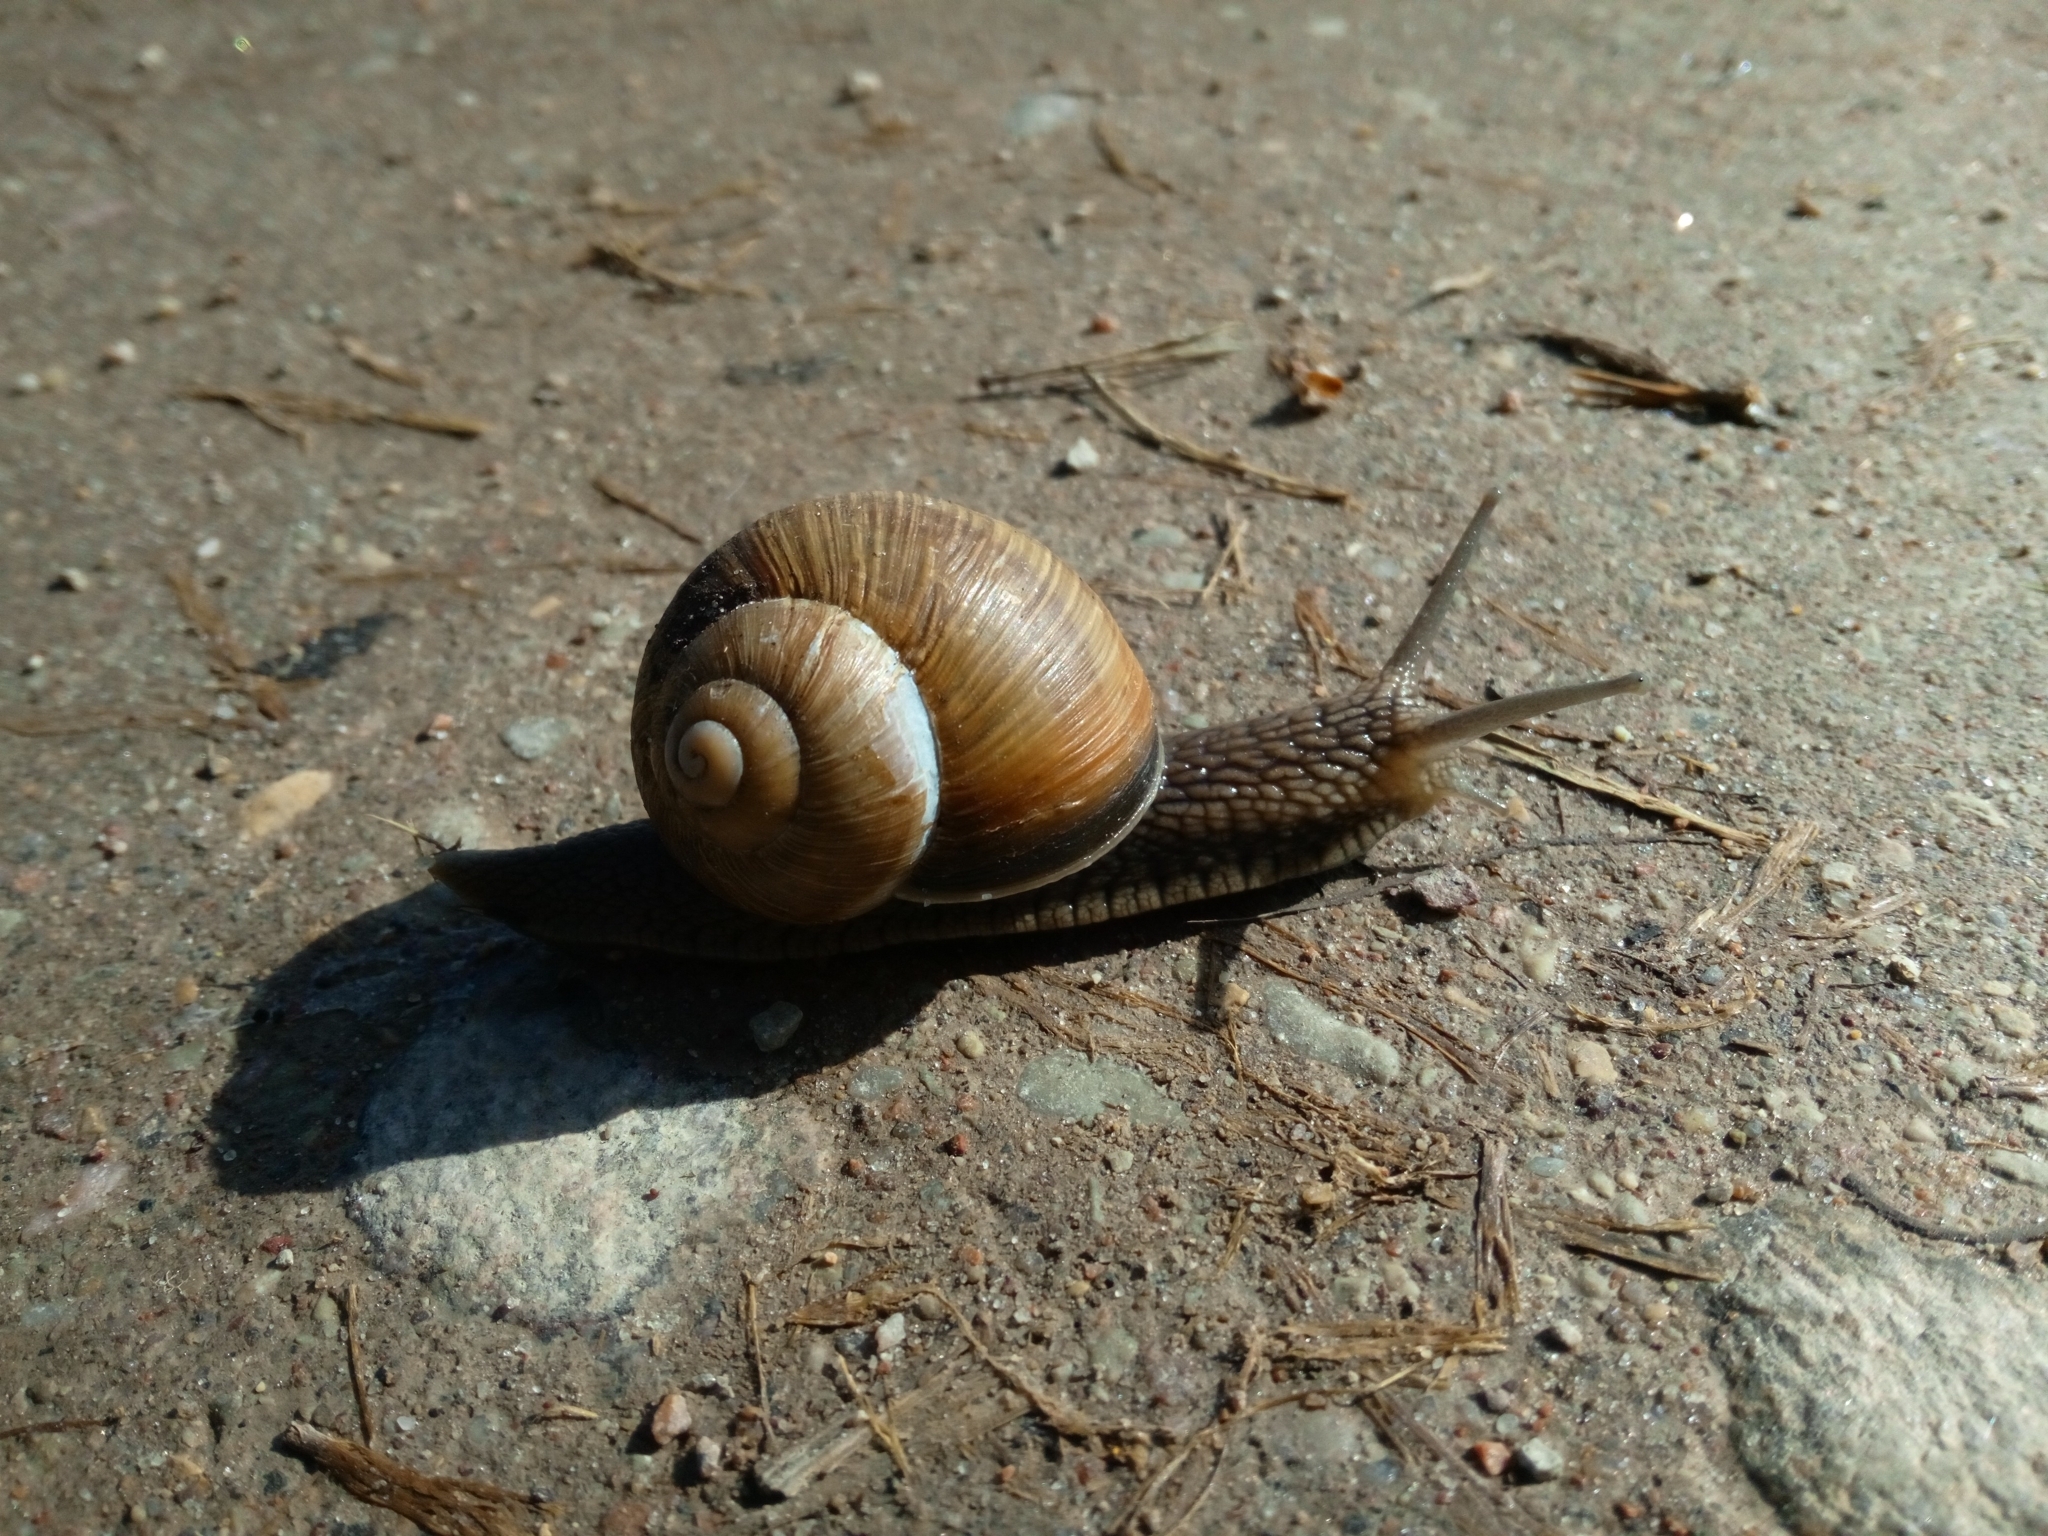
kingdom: Animalia
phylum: Mollusca
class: Gastropoda
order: Stylommatophora
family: Helicidae
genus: Helix
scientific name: Helix pomatia
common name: Roman snail
